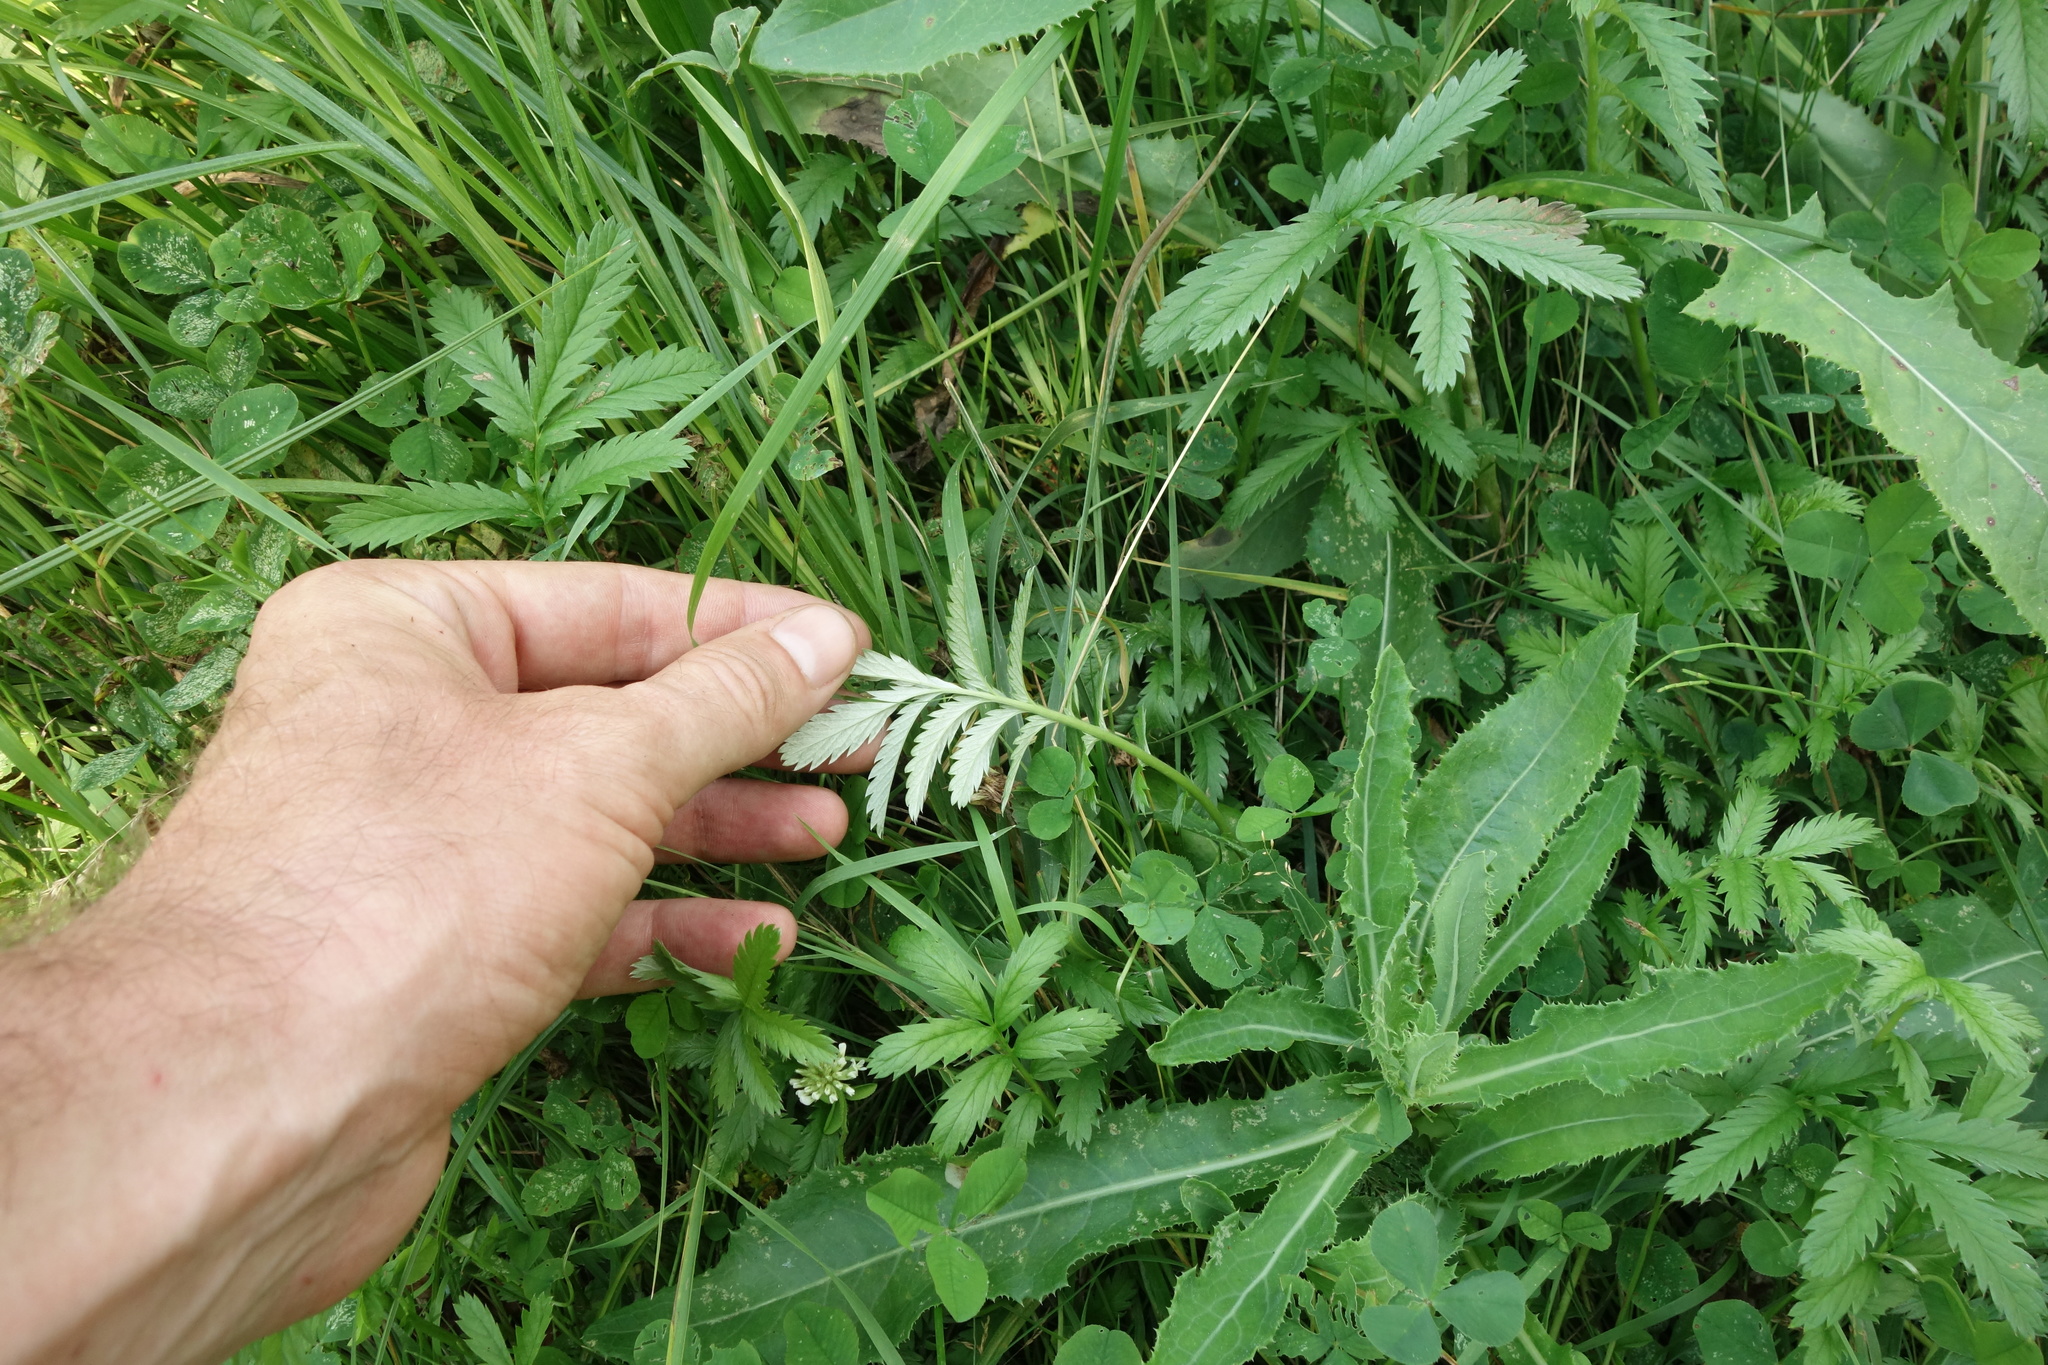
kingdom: Plantae
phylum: Tracheophyta
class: Magnoliopsida
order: Rosales
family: Rosaceae
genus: Argentina
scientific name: Argentina anserina
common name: Common silverweed
